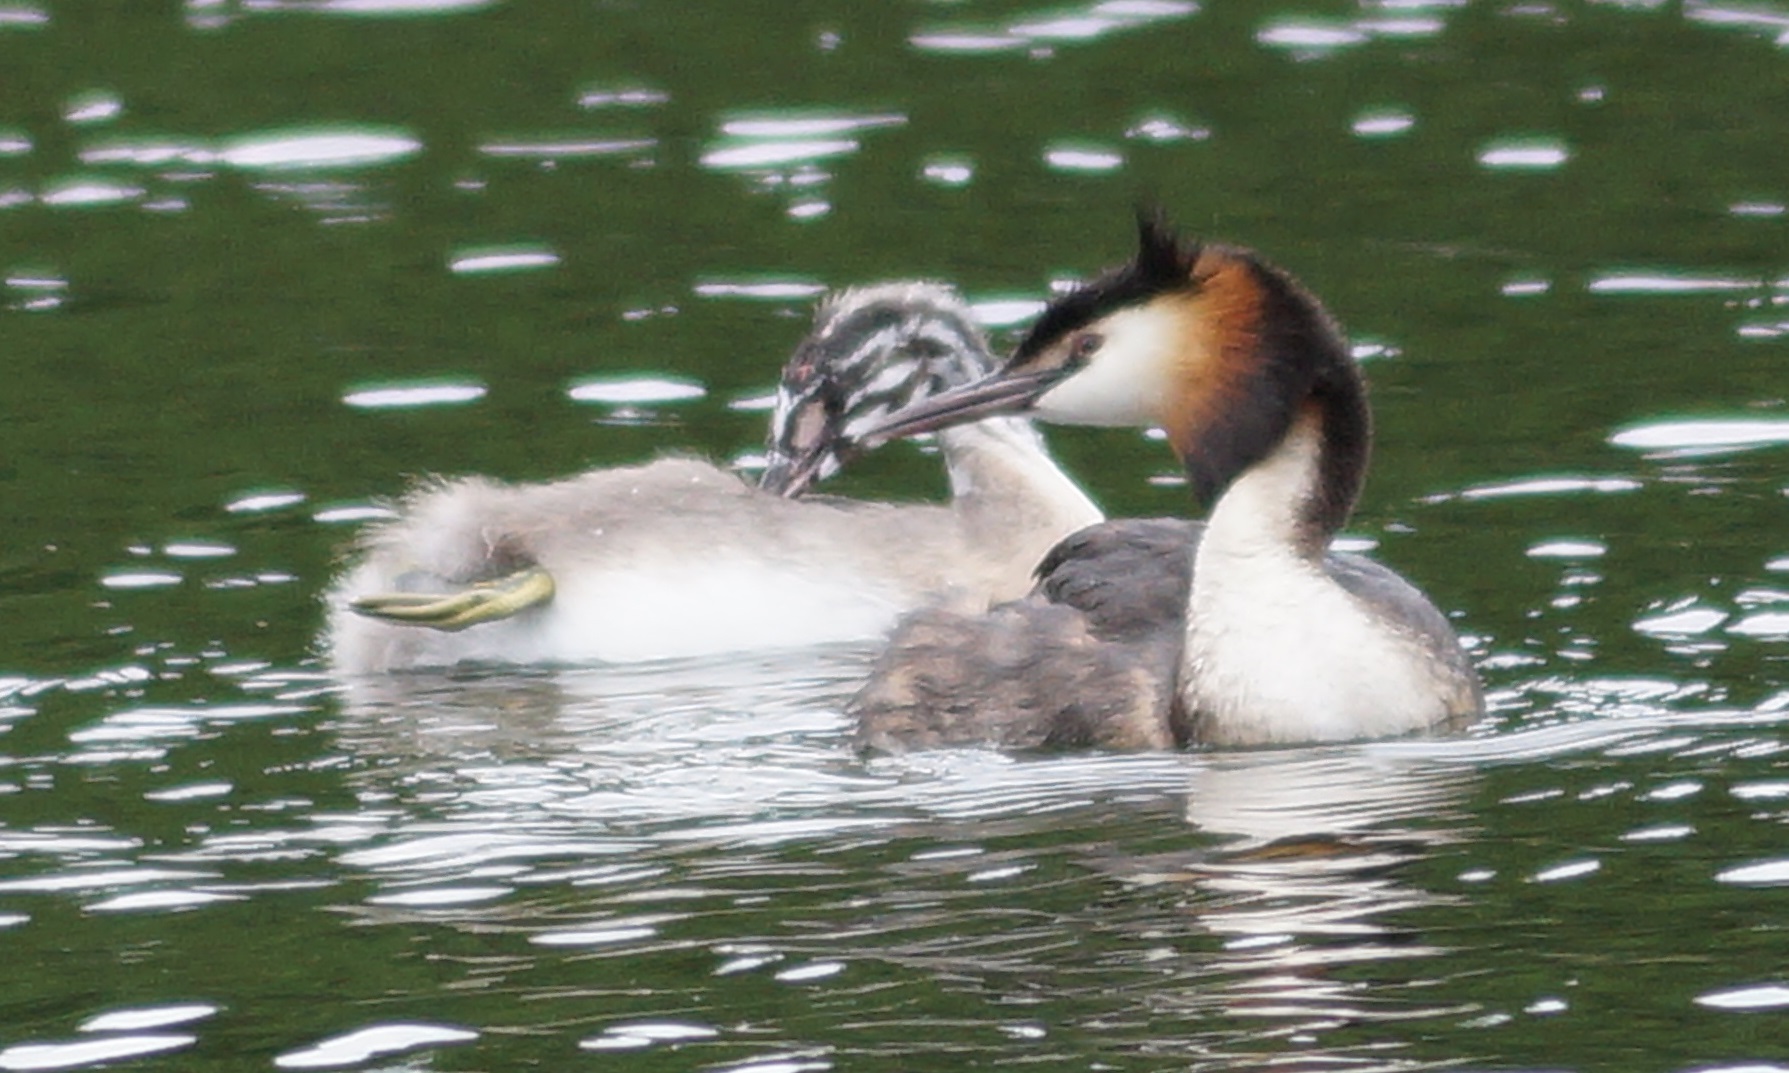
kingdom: Animalia
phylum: Chordata
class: Aves
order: Podicipediformes
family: Podicipedidae
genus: Podiceps
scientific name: Podiceps cristatus
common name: Great crested grebe
